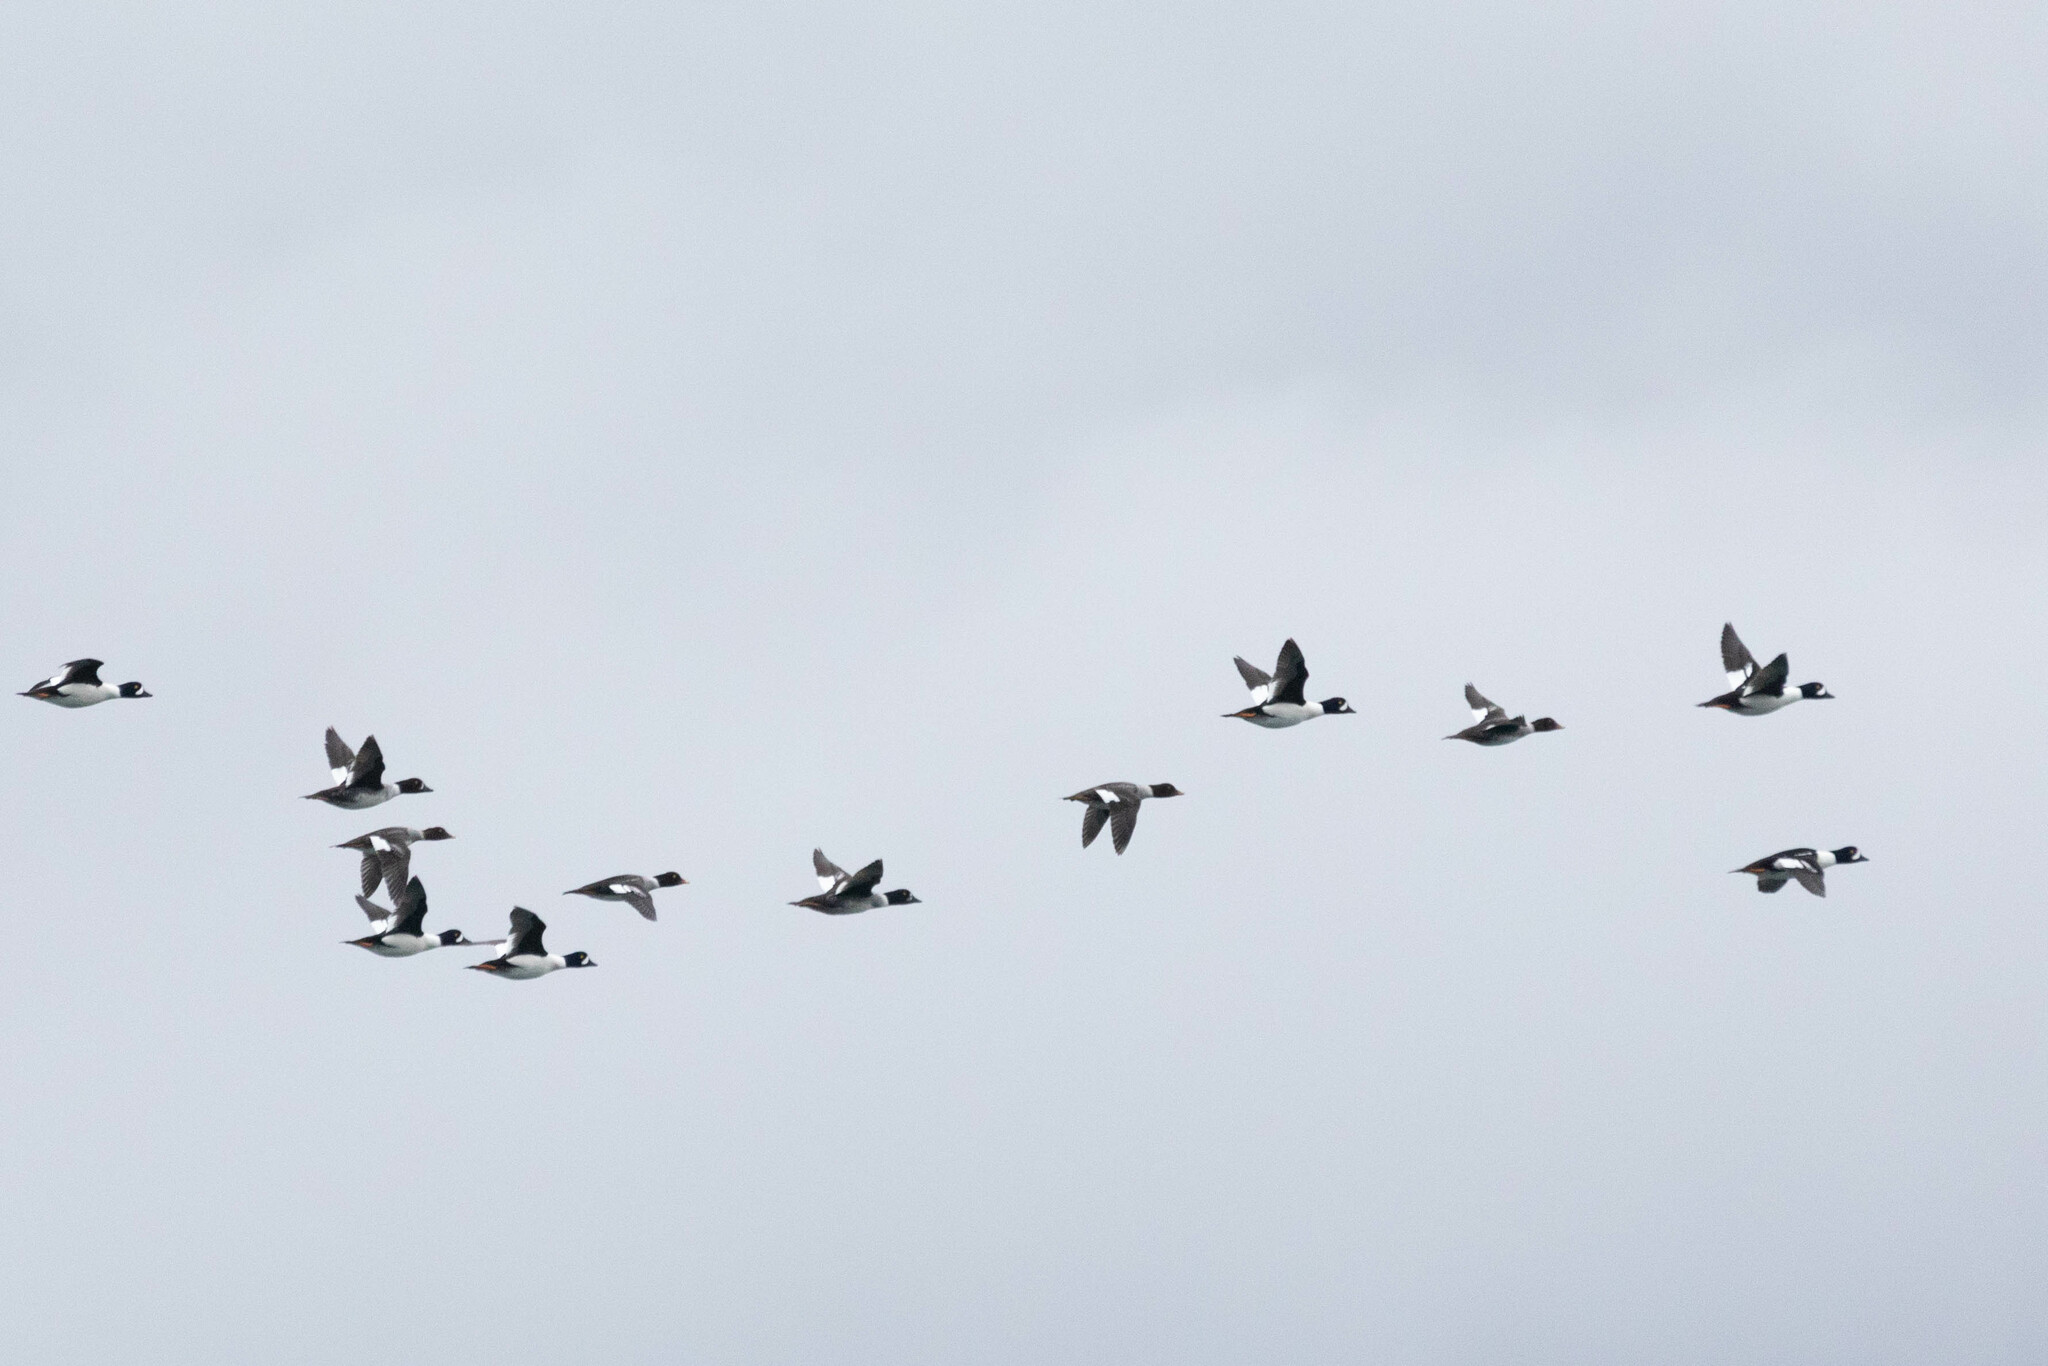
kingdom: Animalia
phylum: Chordata
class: Aves
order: Anseriformes
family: Anatidae
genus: Bucephala
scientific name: Bucephala islandica
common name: Barrow's goldeneye
